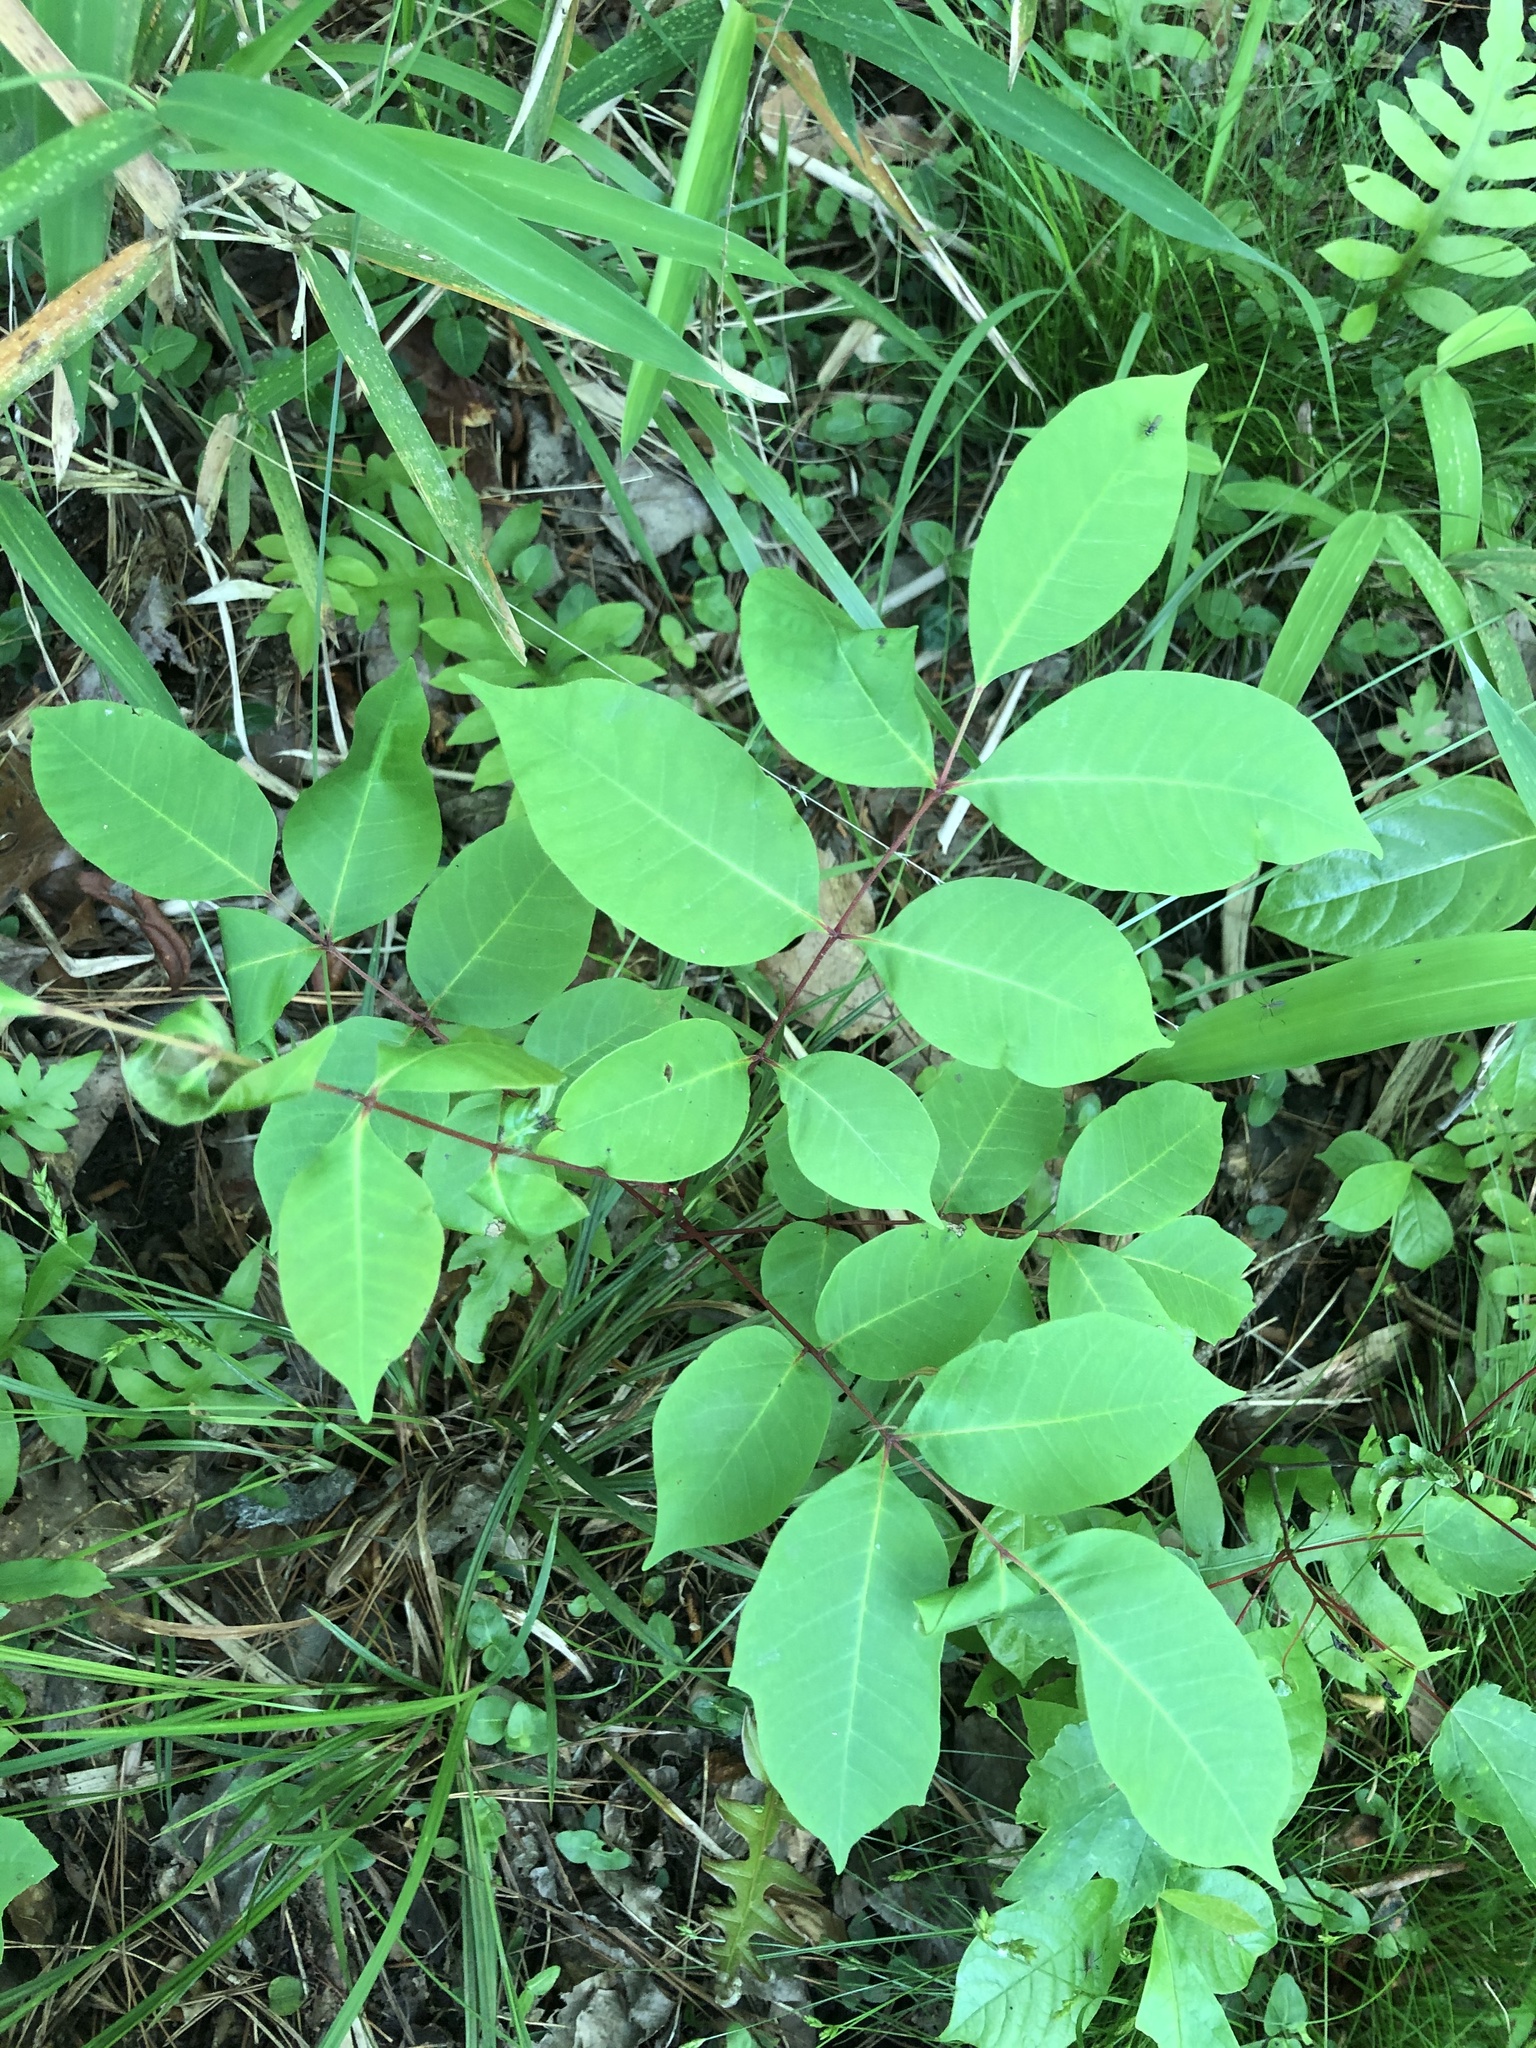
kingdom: Plantae
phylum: Tracheophyta
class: Magnoliopsida
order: Sapindales
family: Anacardiaceae
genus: Toxicodendron
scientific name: Toxicodendron vernix
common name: Poison sumac
